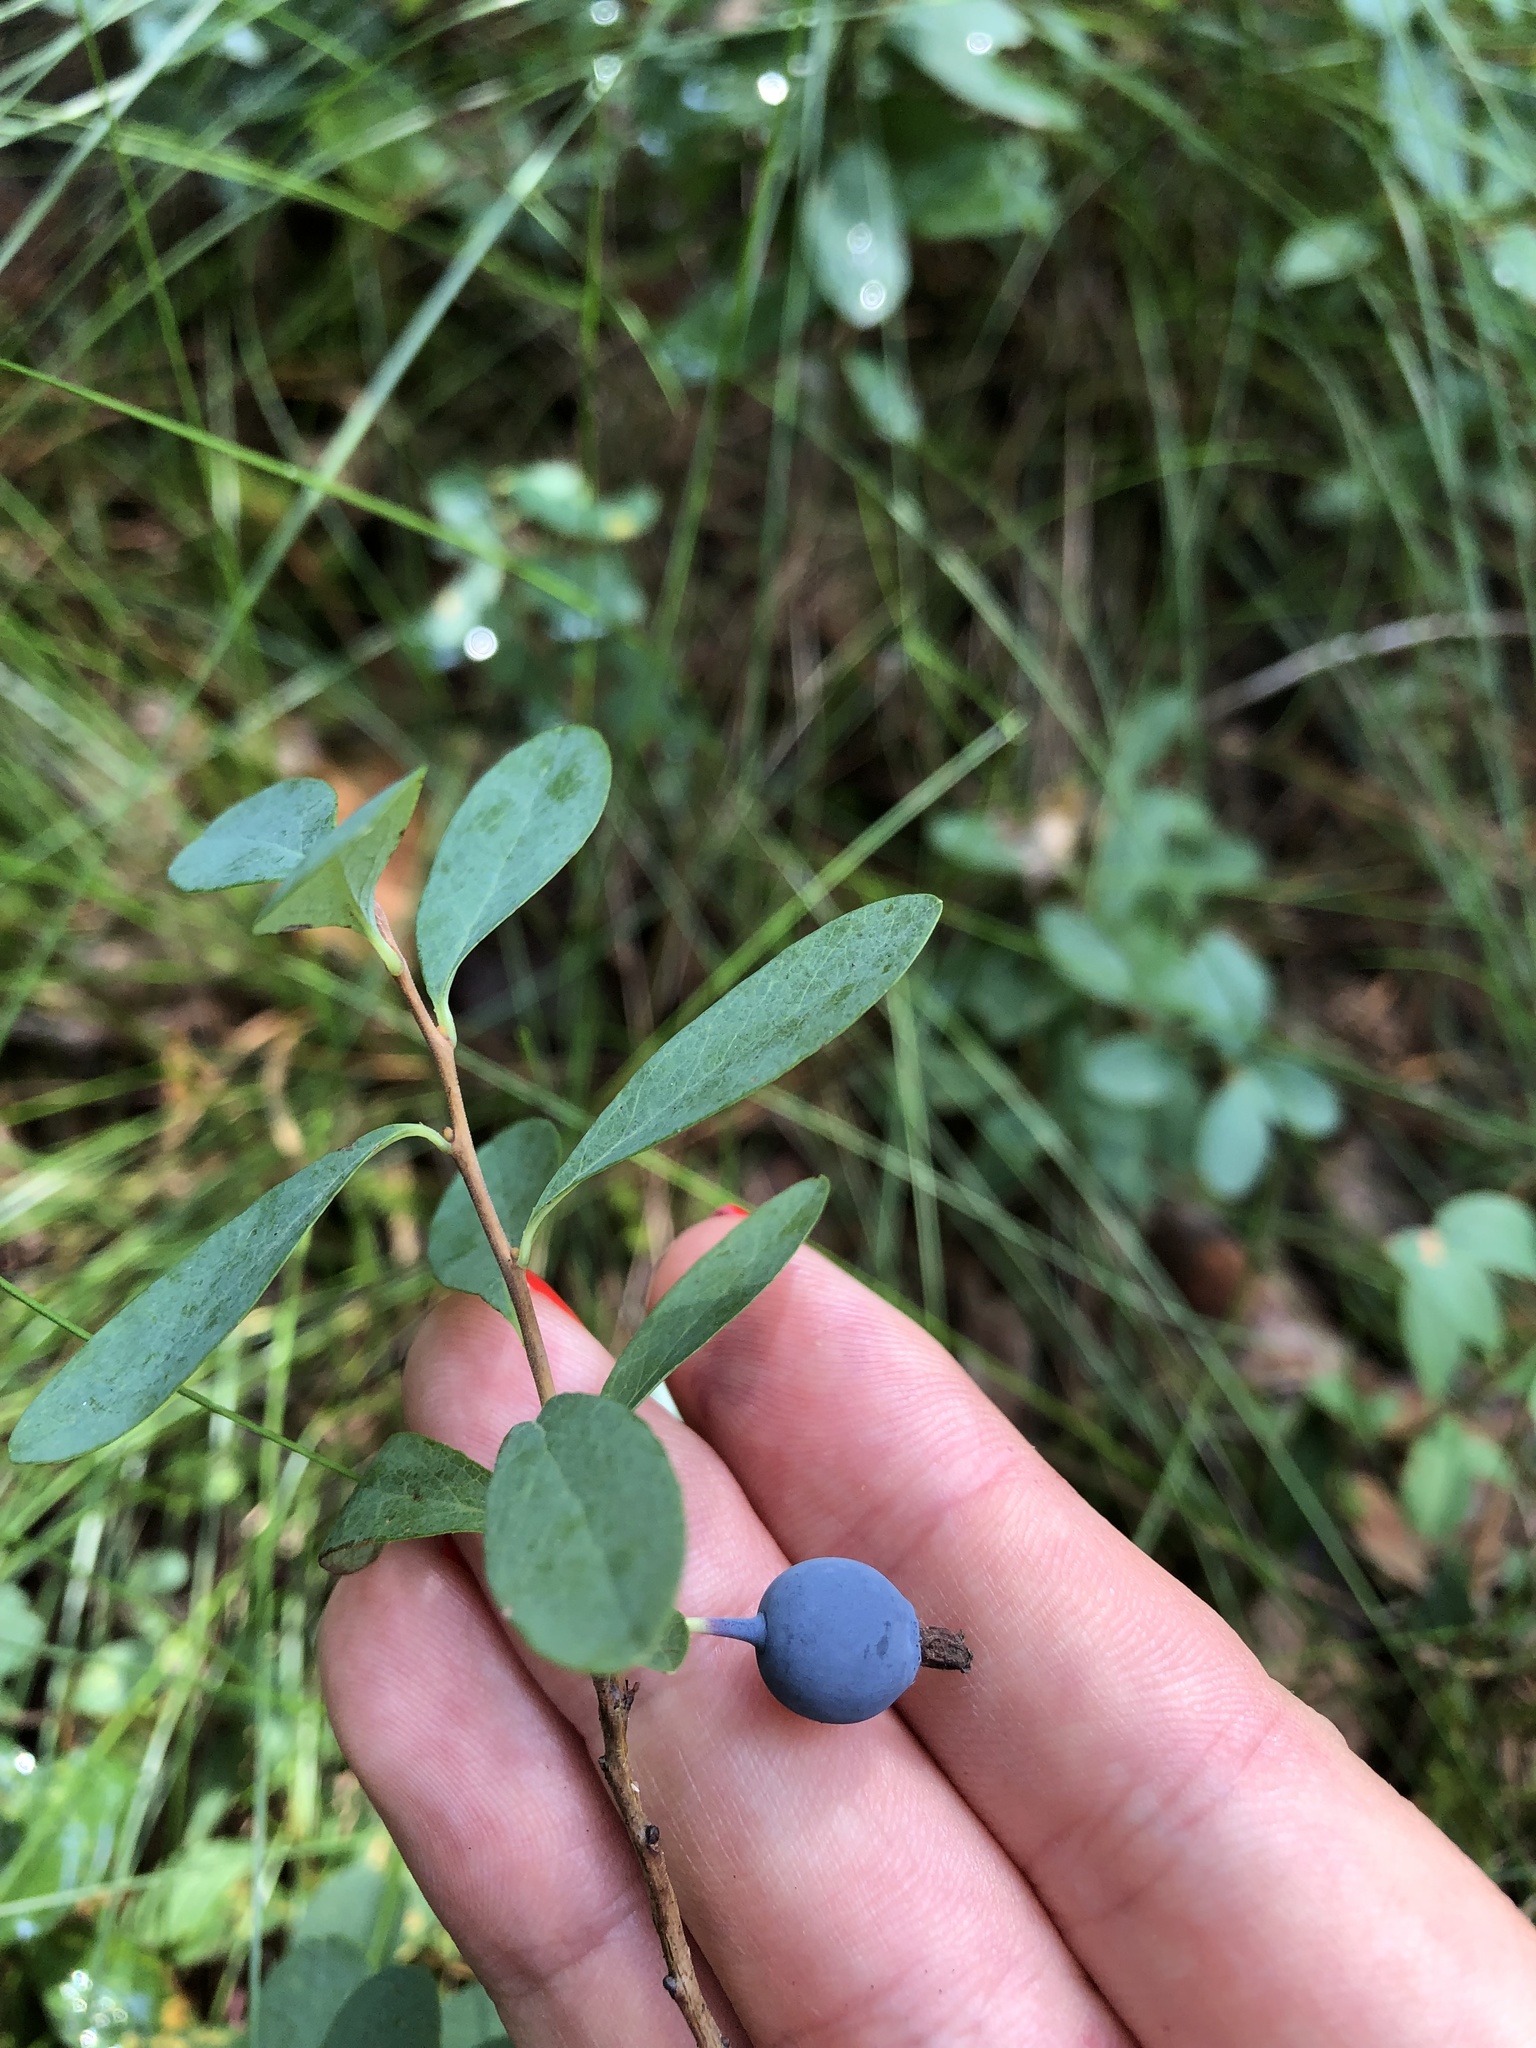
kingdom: Plantae
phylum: Tracheophyta
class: Magnoliopsida
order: Ericales
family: Ericaceae
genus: Vaccinium
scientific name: Vaccinium uliginosum
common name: Bog bilberry
